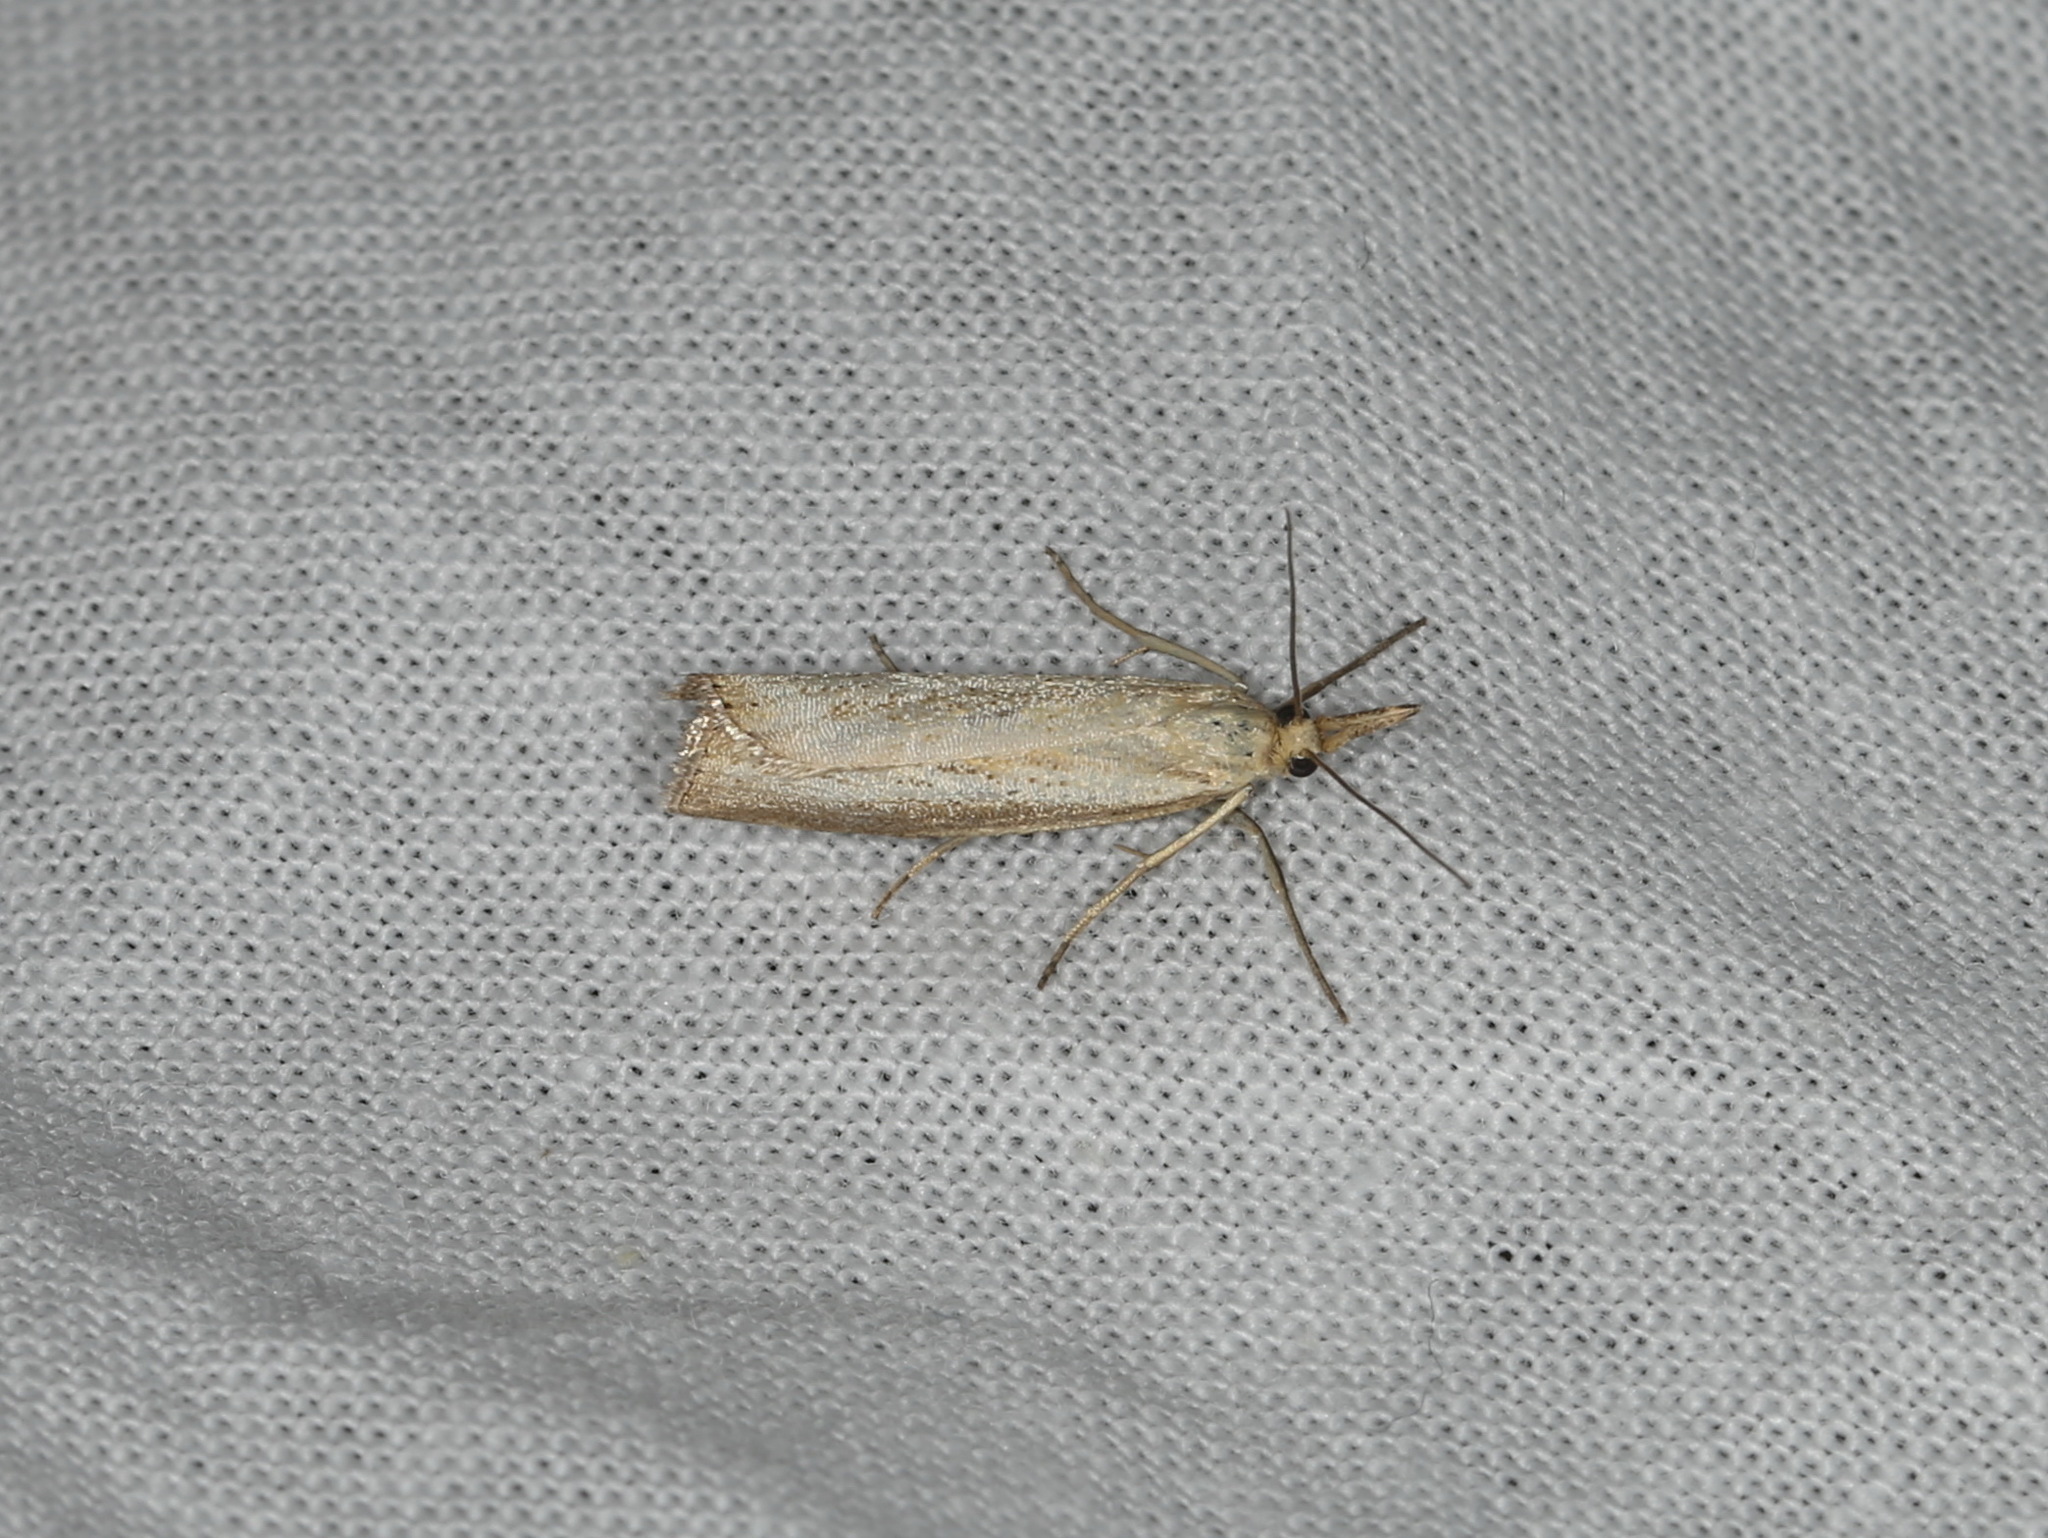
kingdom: Animalia
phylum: Arthropoda
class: Insecta
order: Lepidoptera
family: Crambidae
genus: Agriphila
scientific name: Agriphila straminella
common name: Straw grass-veneer
